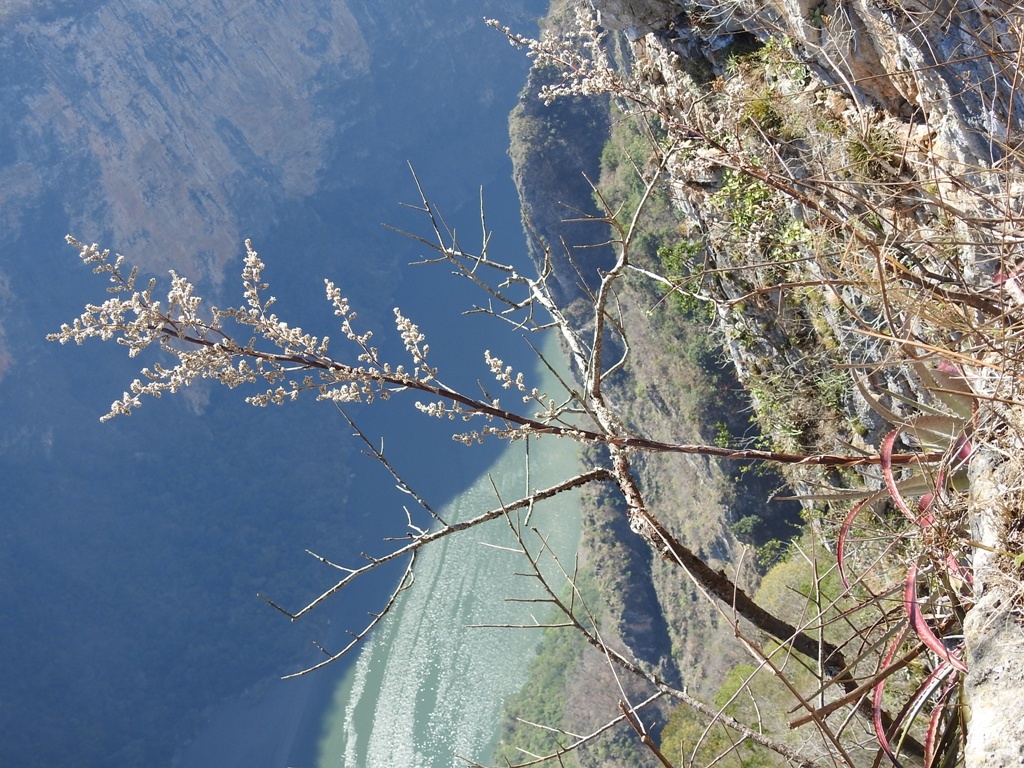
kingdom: Plantae
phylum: Tracheophyta
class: Liliopsida
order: Poales
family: Bromeliaceae
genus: Hechtia
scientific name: Hechtia glomerata
